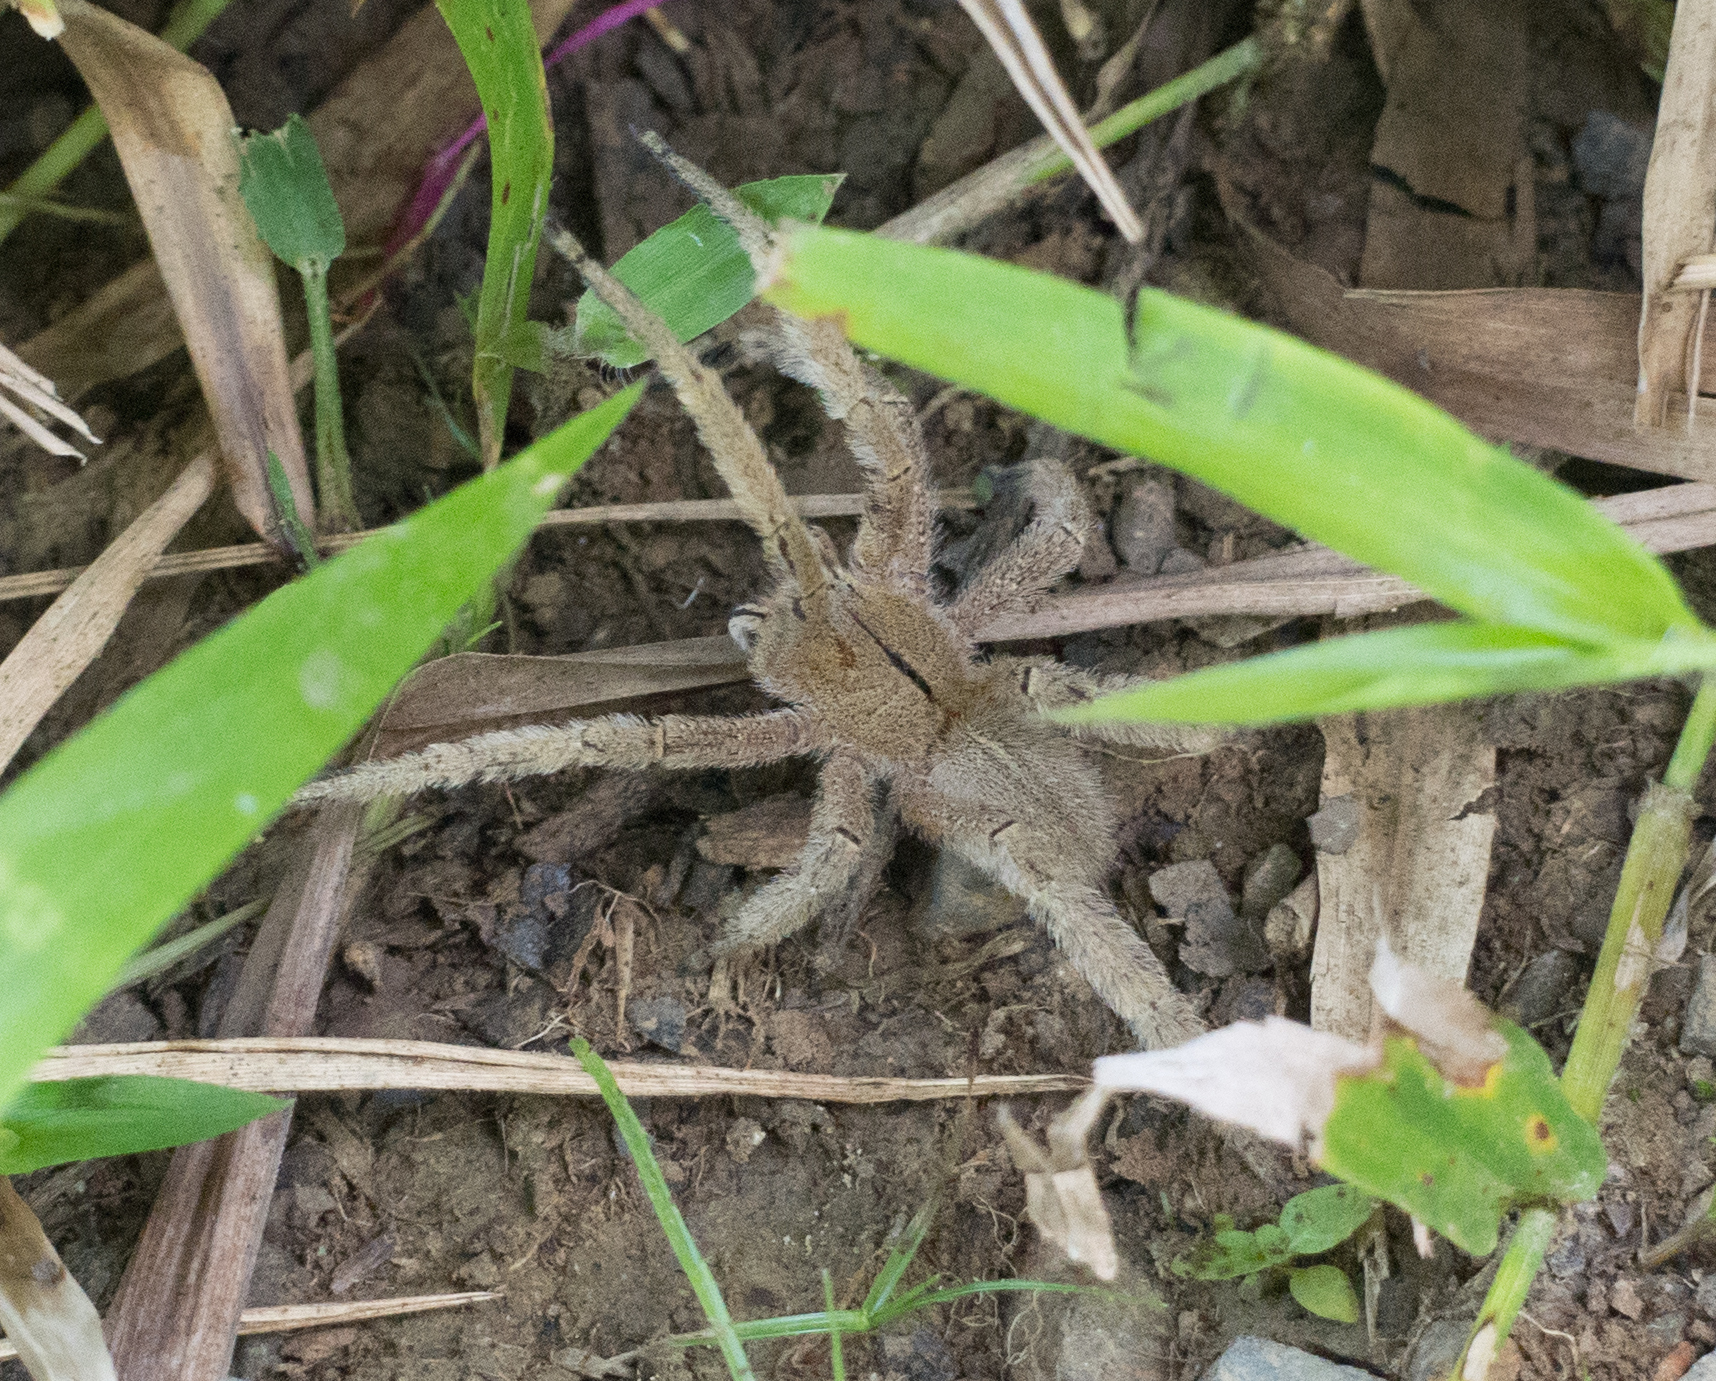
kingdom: Animalia
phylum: Arthropoda
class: Arachnida
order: Araneae
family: Ctenidae
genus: Phoneutria
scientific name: Phoneutria depilata
